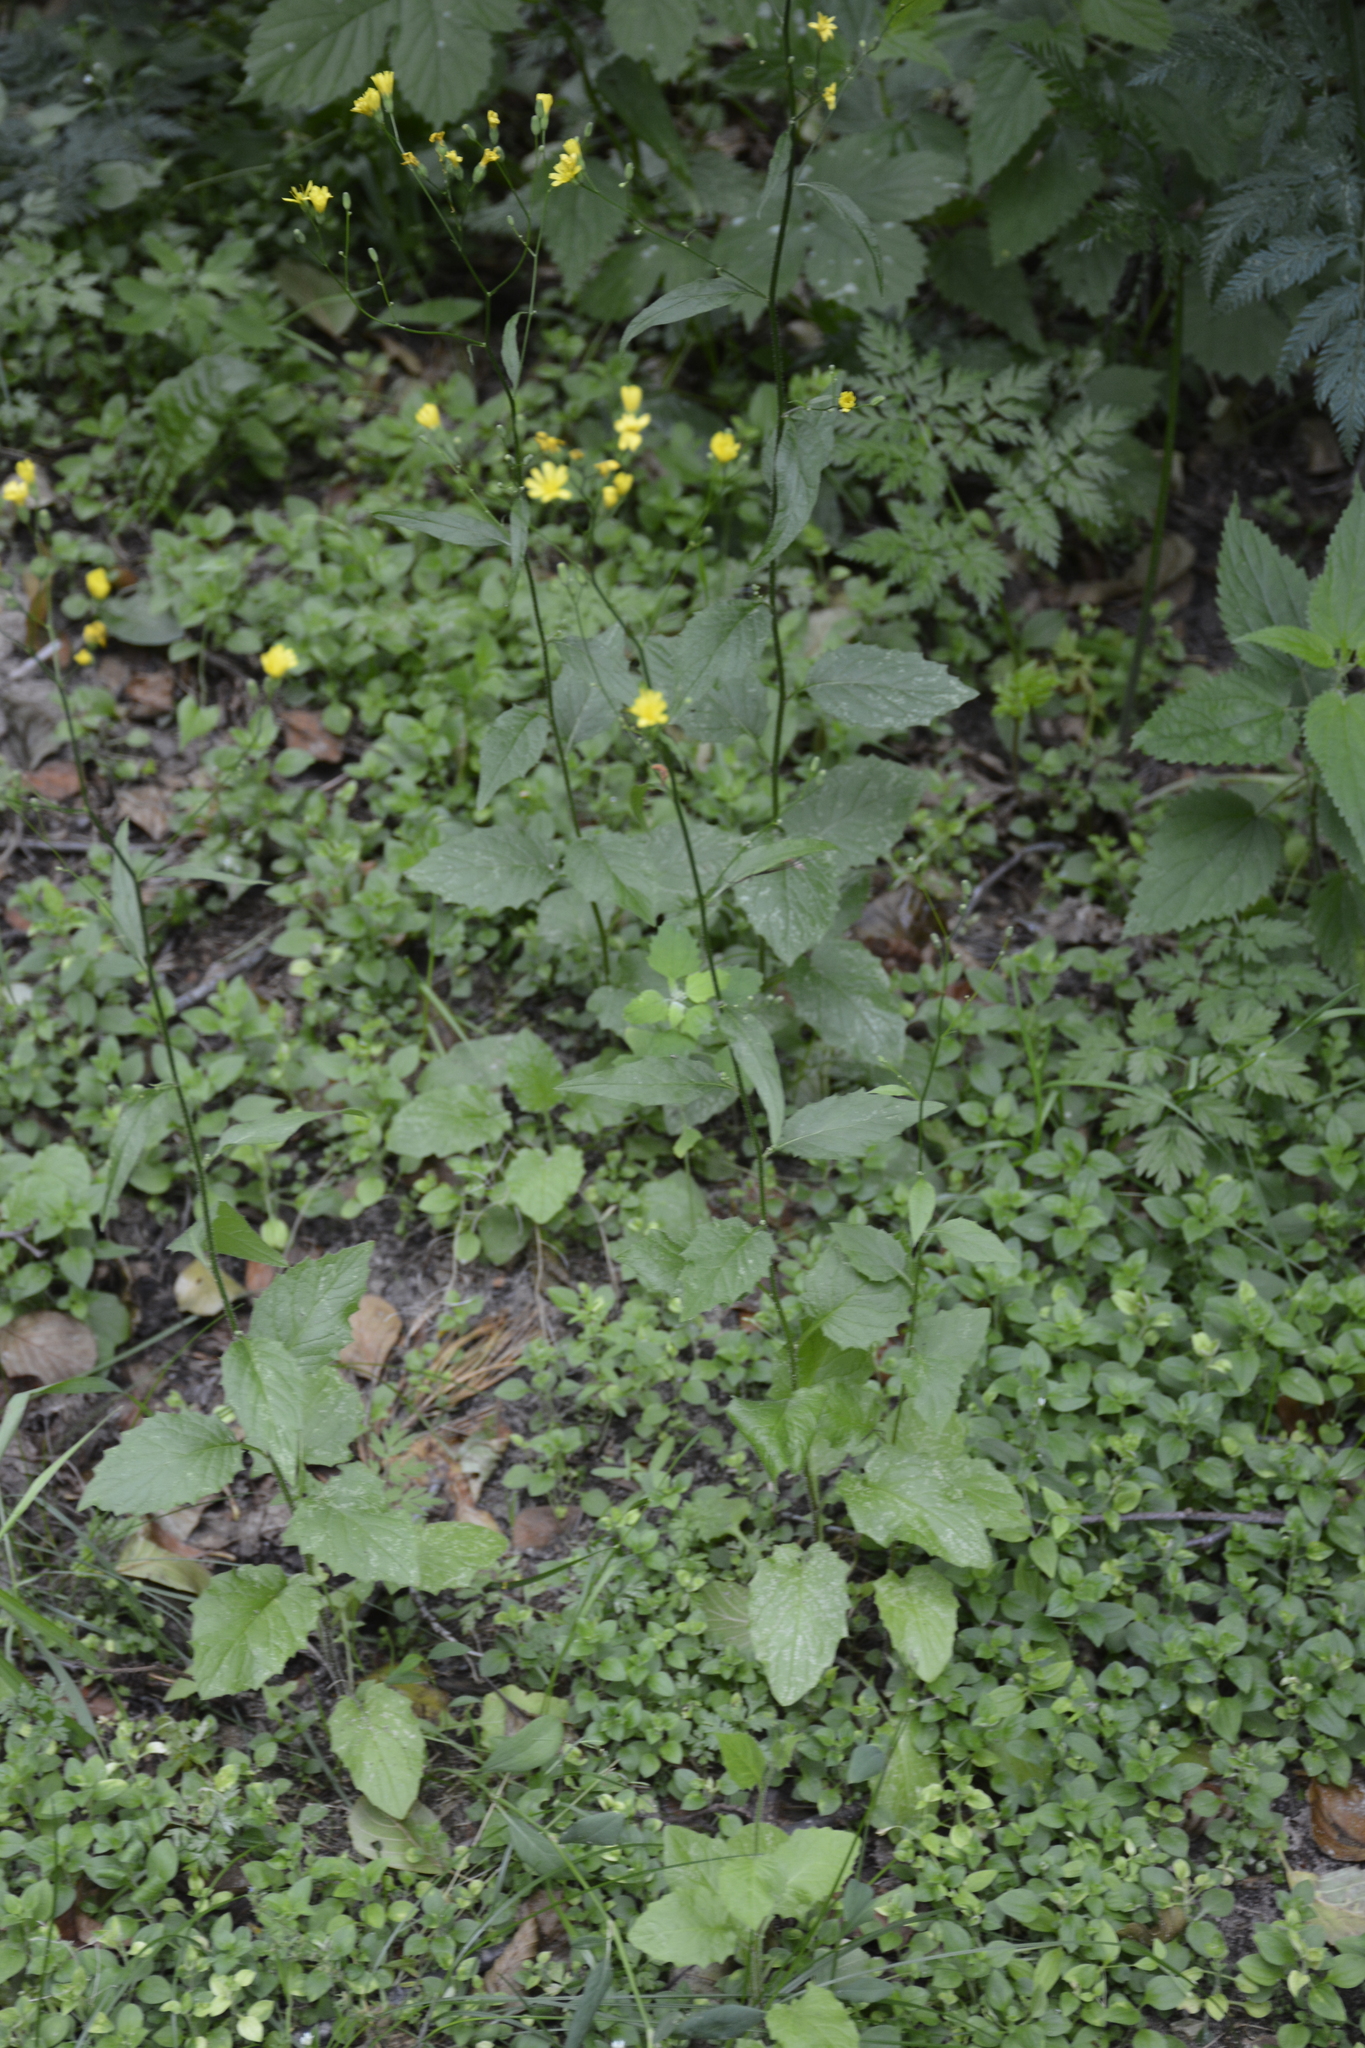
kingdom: Plantae
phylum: Tracheophyta
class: Magnoliopsida
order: Asterales
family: Asteraceae
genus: Lapsana
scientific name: Lapsana communis
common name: Nipplewort
